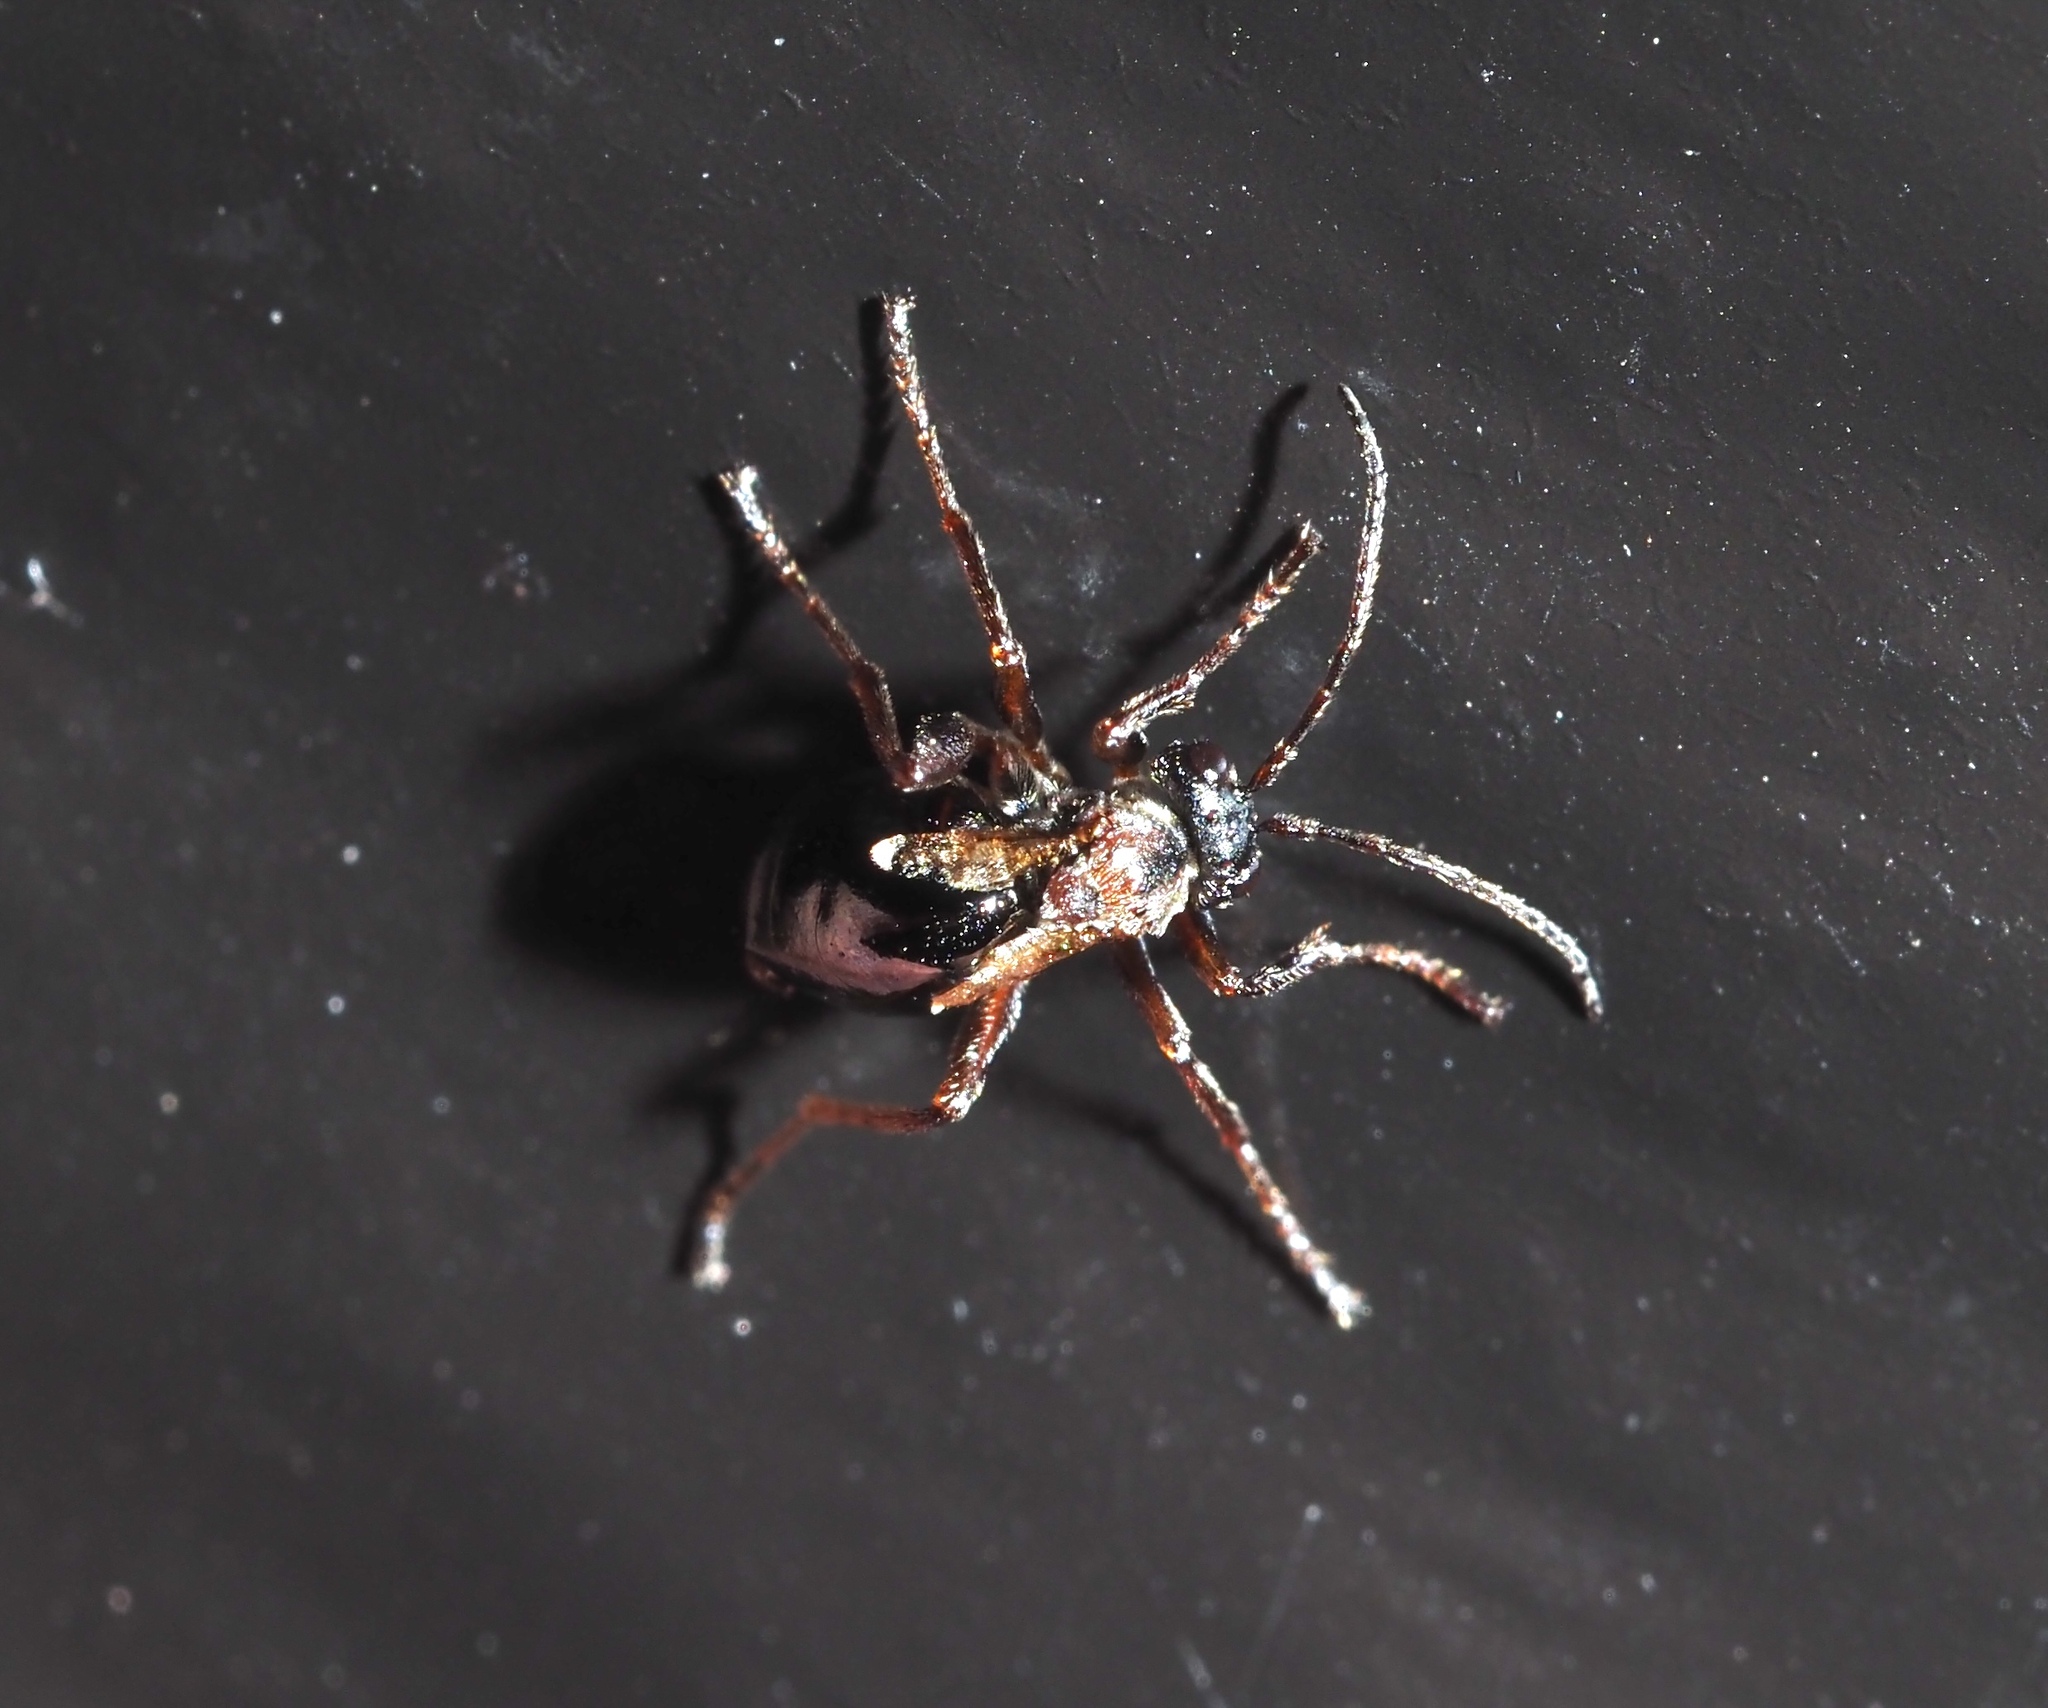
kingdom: Animalia
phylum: Arthropoda
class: Insecta
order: Hymenoptera
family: Cynipidae
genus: Philonix
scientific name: Philonix fulvicollis
